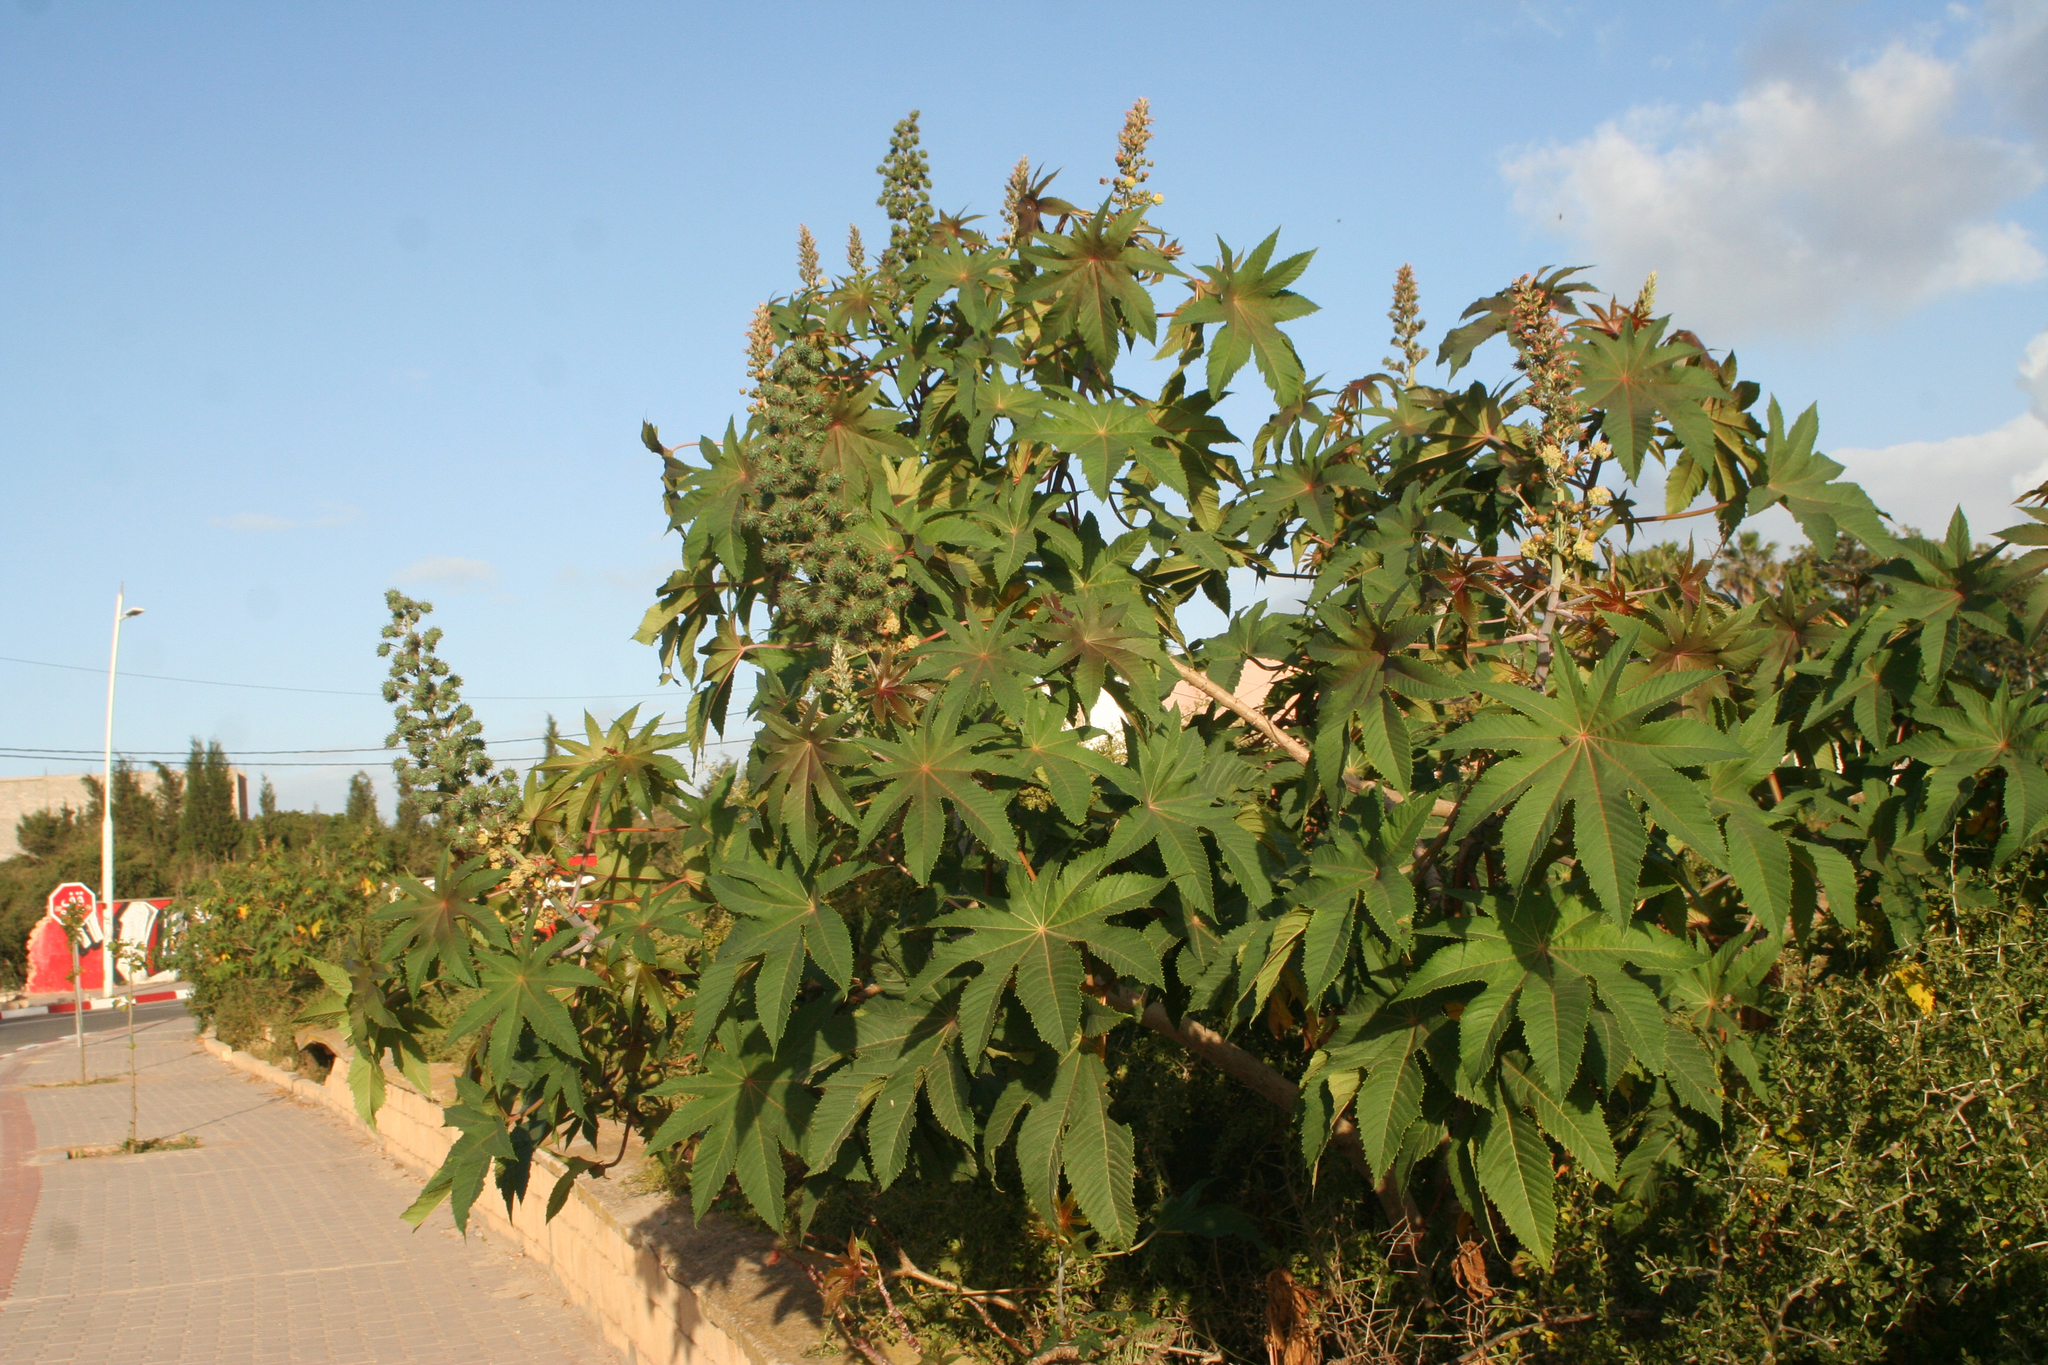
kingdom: Plantae
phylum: Tracheophyta
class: Magnoliopsida
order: Malpighiales
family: Euphorbiaceae
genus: Ricinus
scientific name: Ricinus communis
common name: Castor-oil-plant
